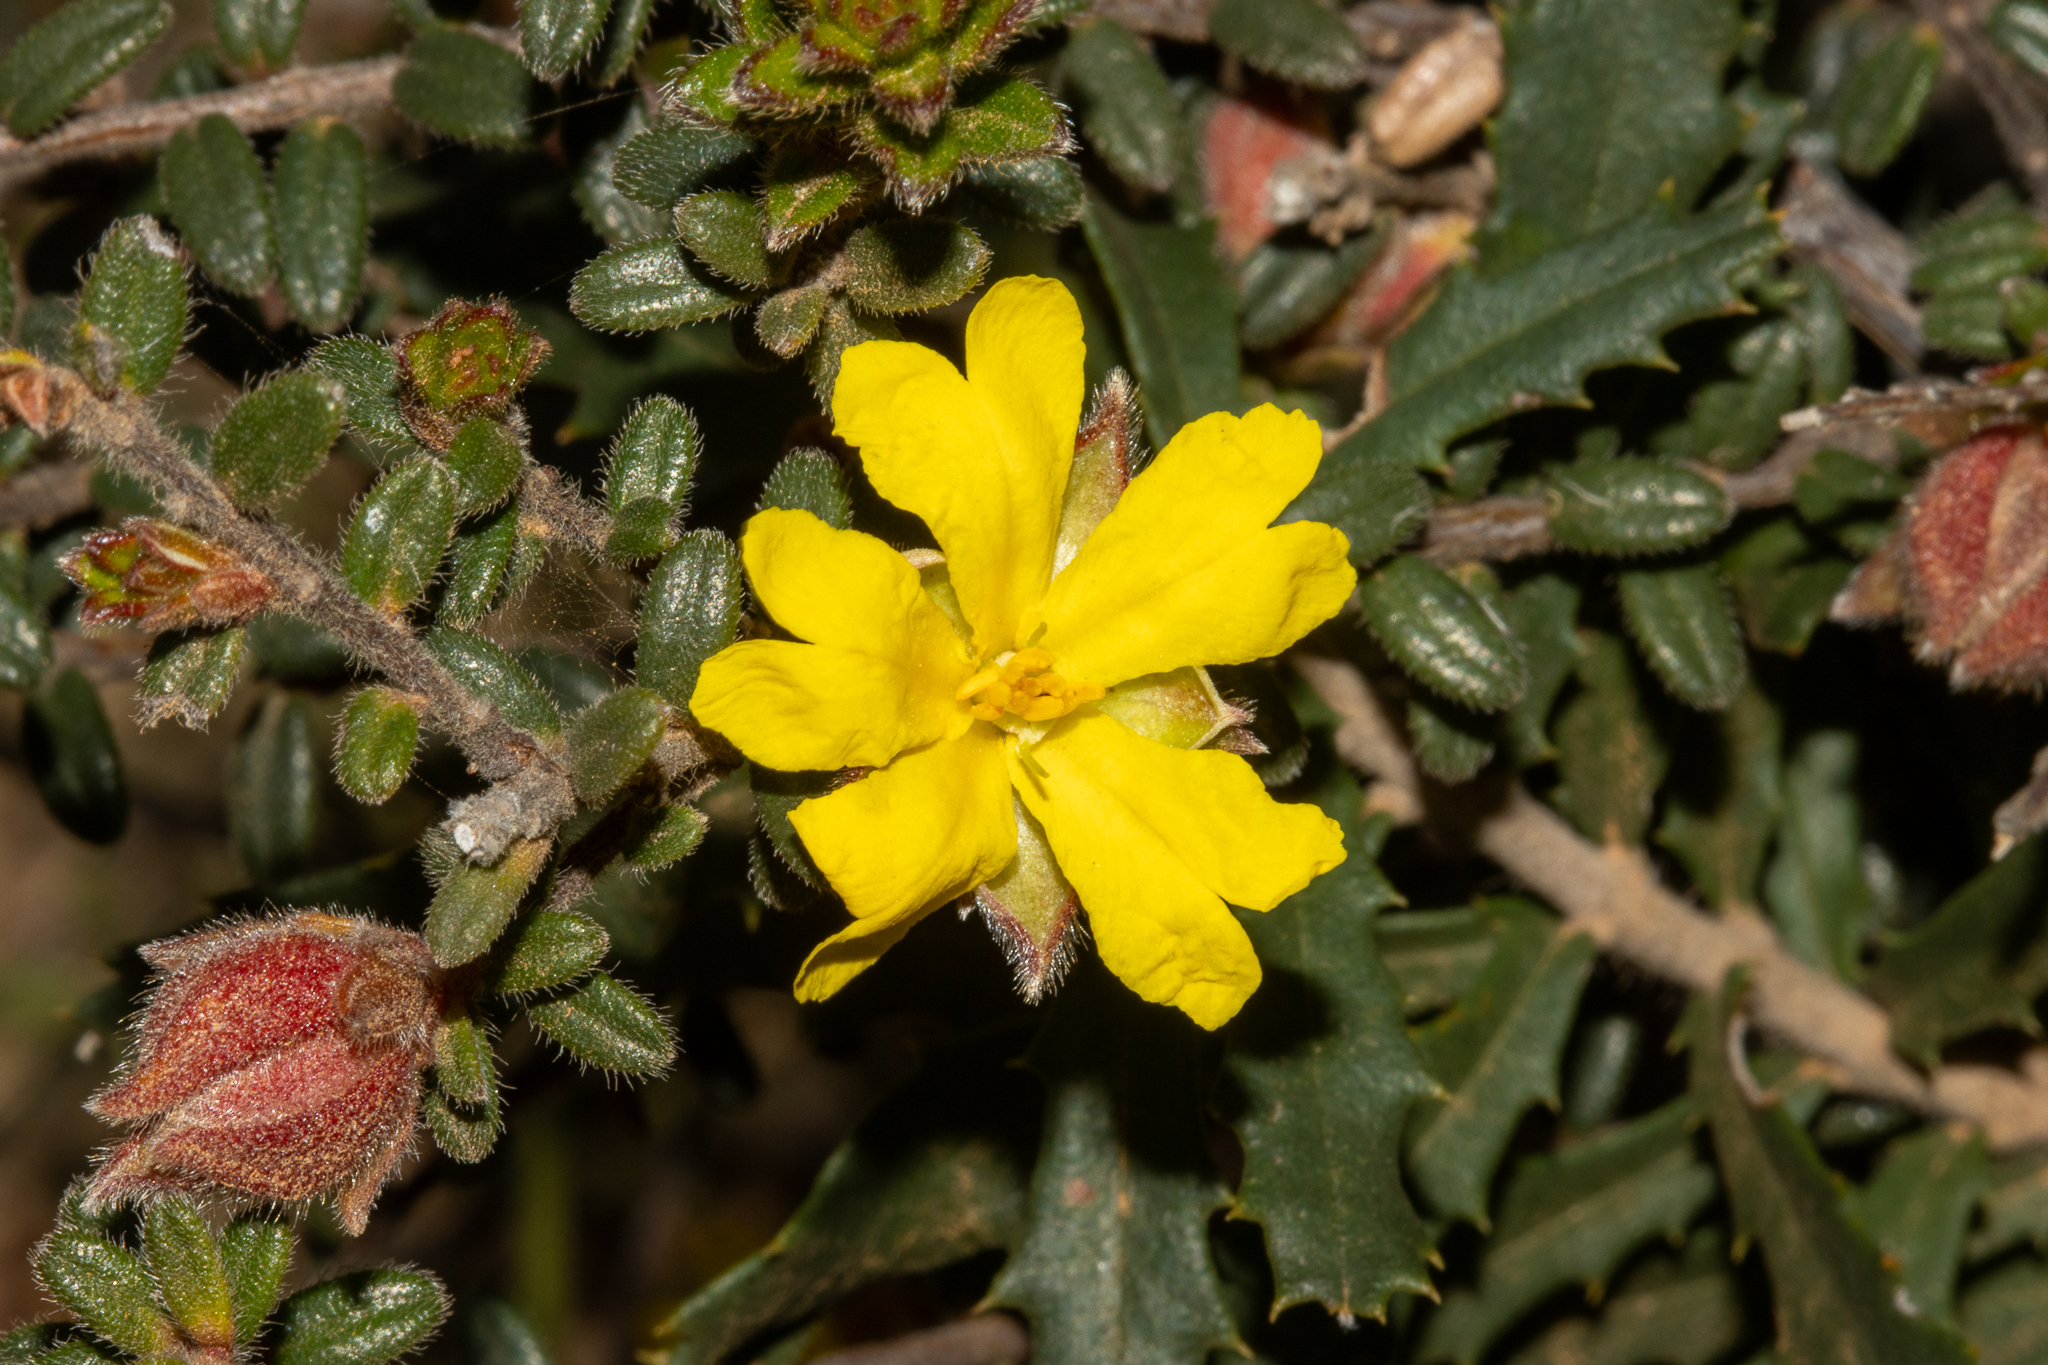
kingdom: Plantae
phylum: Tracheophyta
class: Magnoliopsida
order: Dilleniales
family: Dilleniaceae
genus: Hibbertia
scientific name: Hibbertia platyphylla
